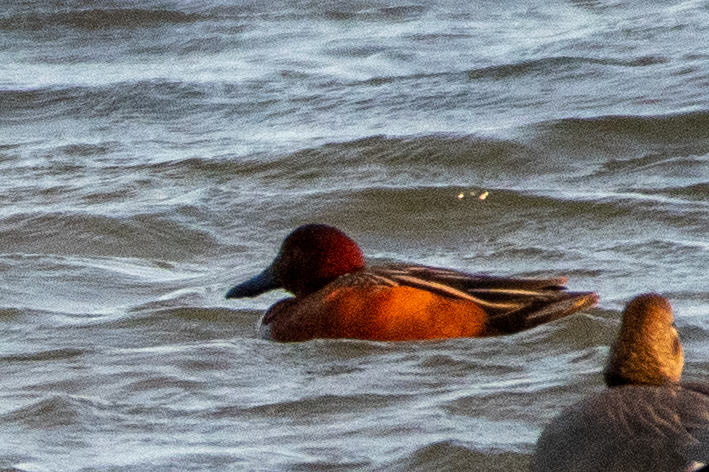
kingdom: Animalia
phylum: Chordata
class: Aves
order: Anseriformes
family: Anatidae
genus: Spatula
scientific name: Spatula cyanoptera
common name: Cinnamon teal
